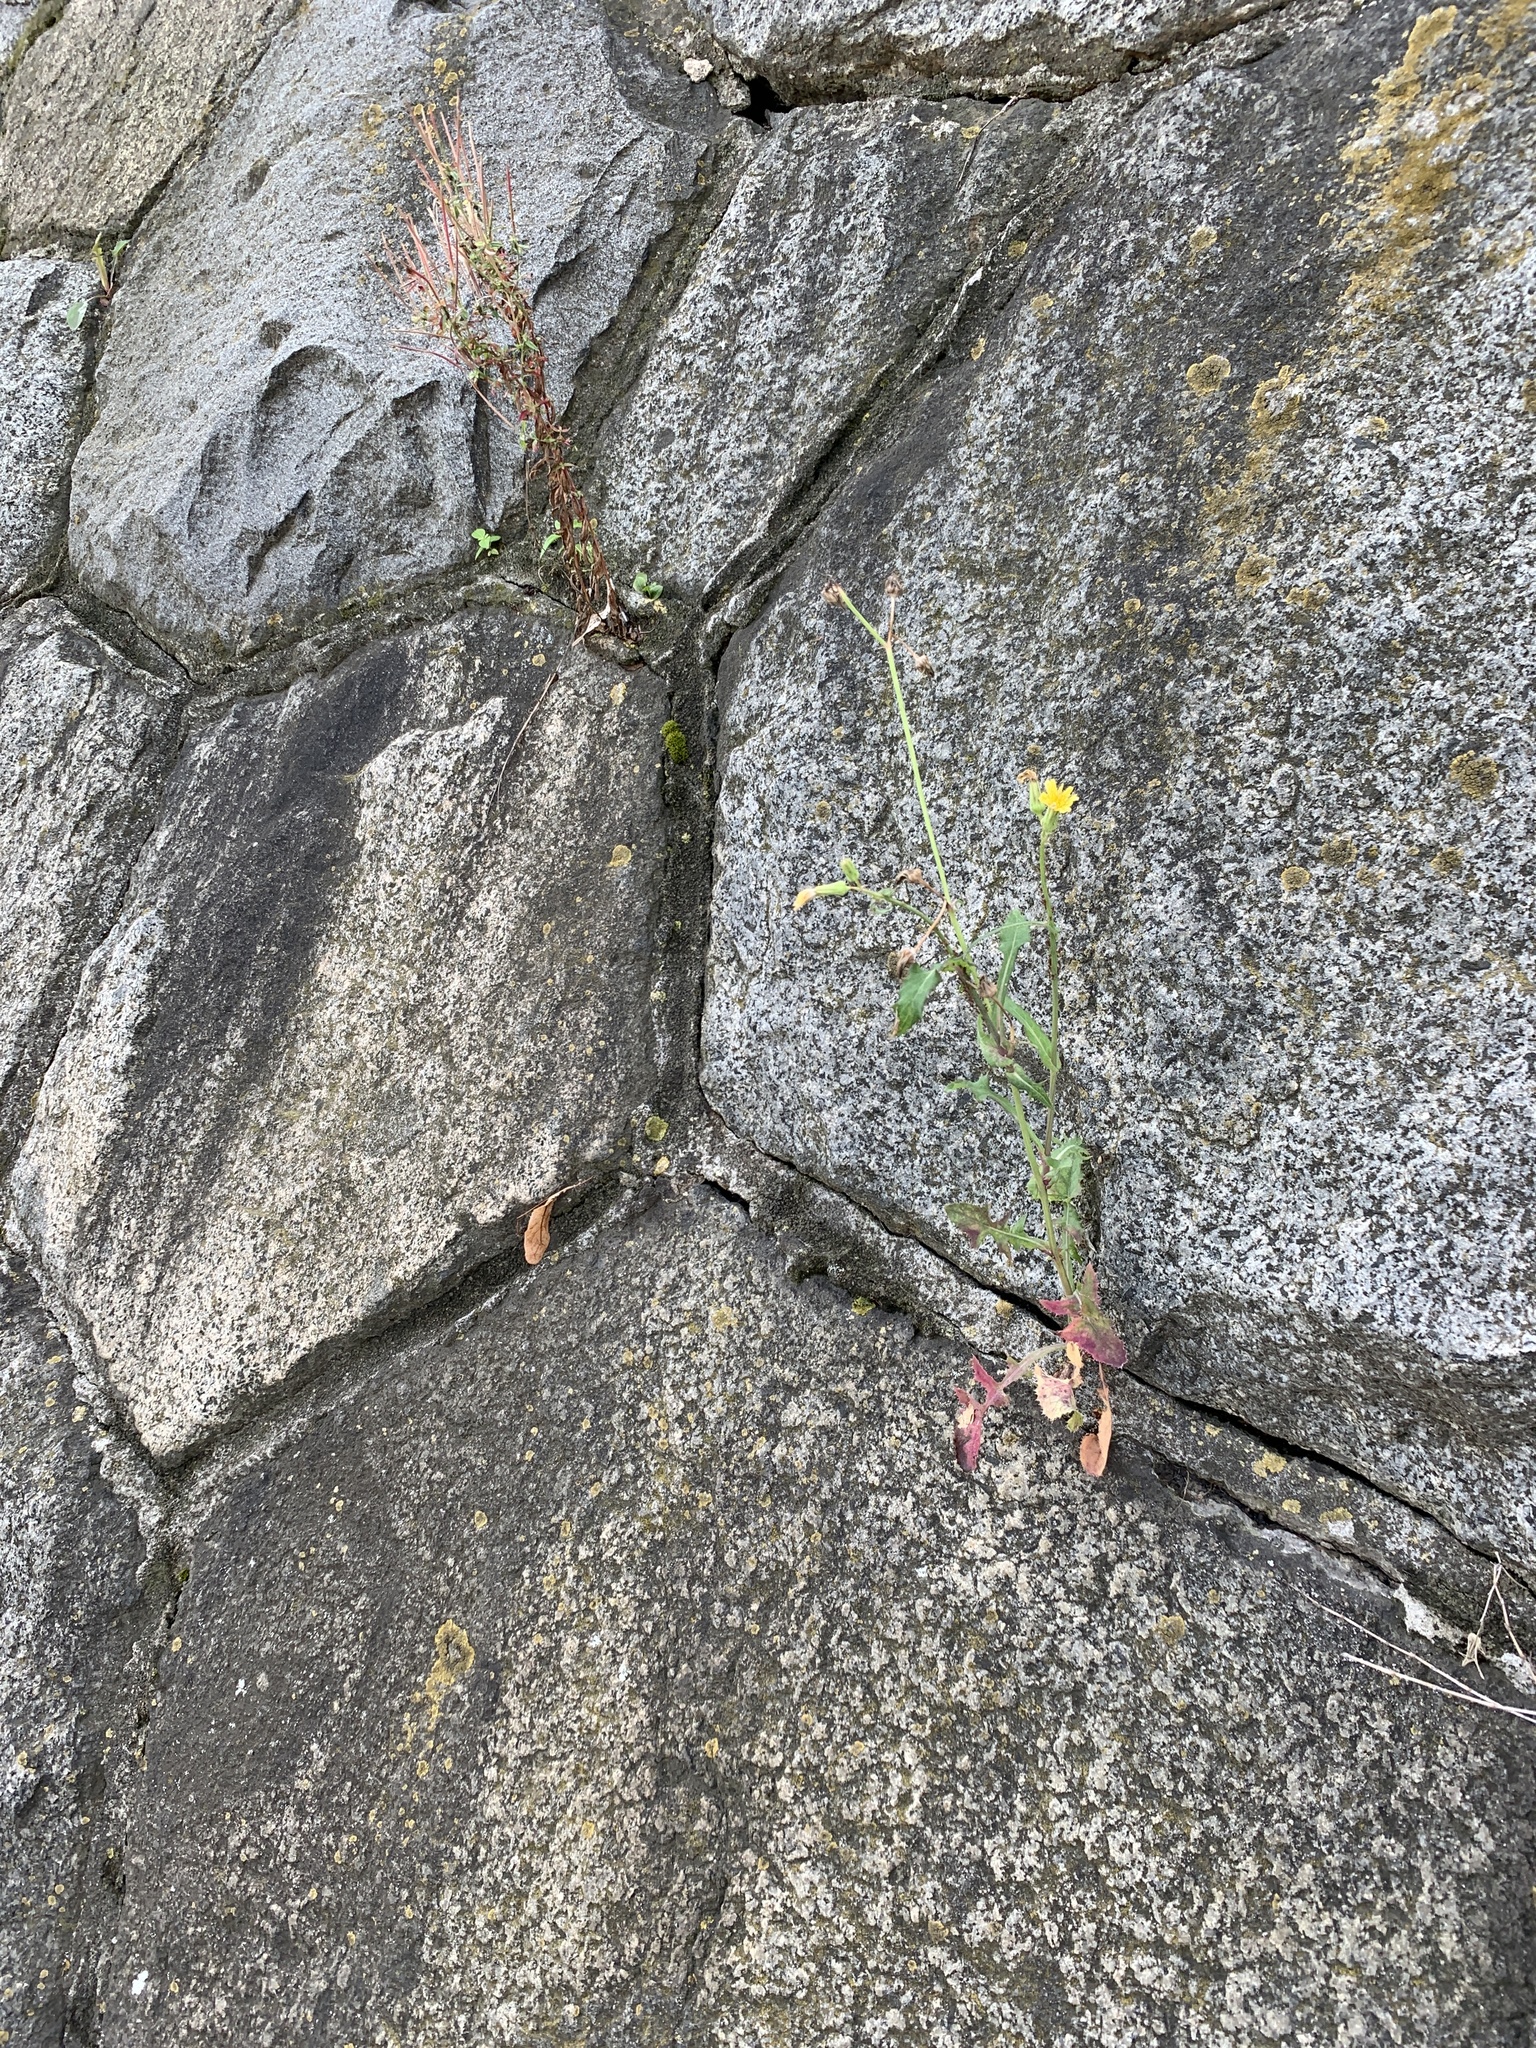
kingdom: Plantae
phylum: Tracheophyta
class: Magnoliopsida
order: Asterales
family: Asteraceae
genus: Sonchus
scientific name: Sonchus oleraceus
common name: Common sowthistle
